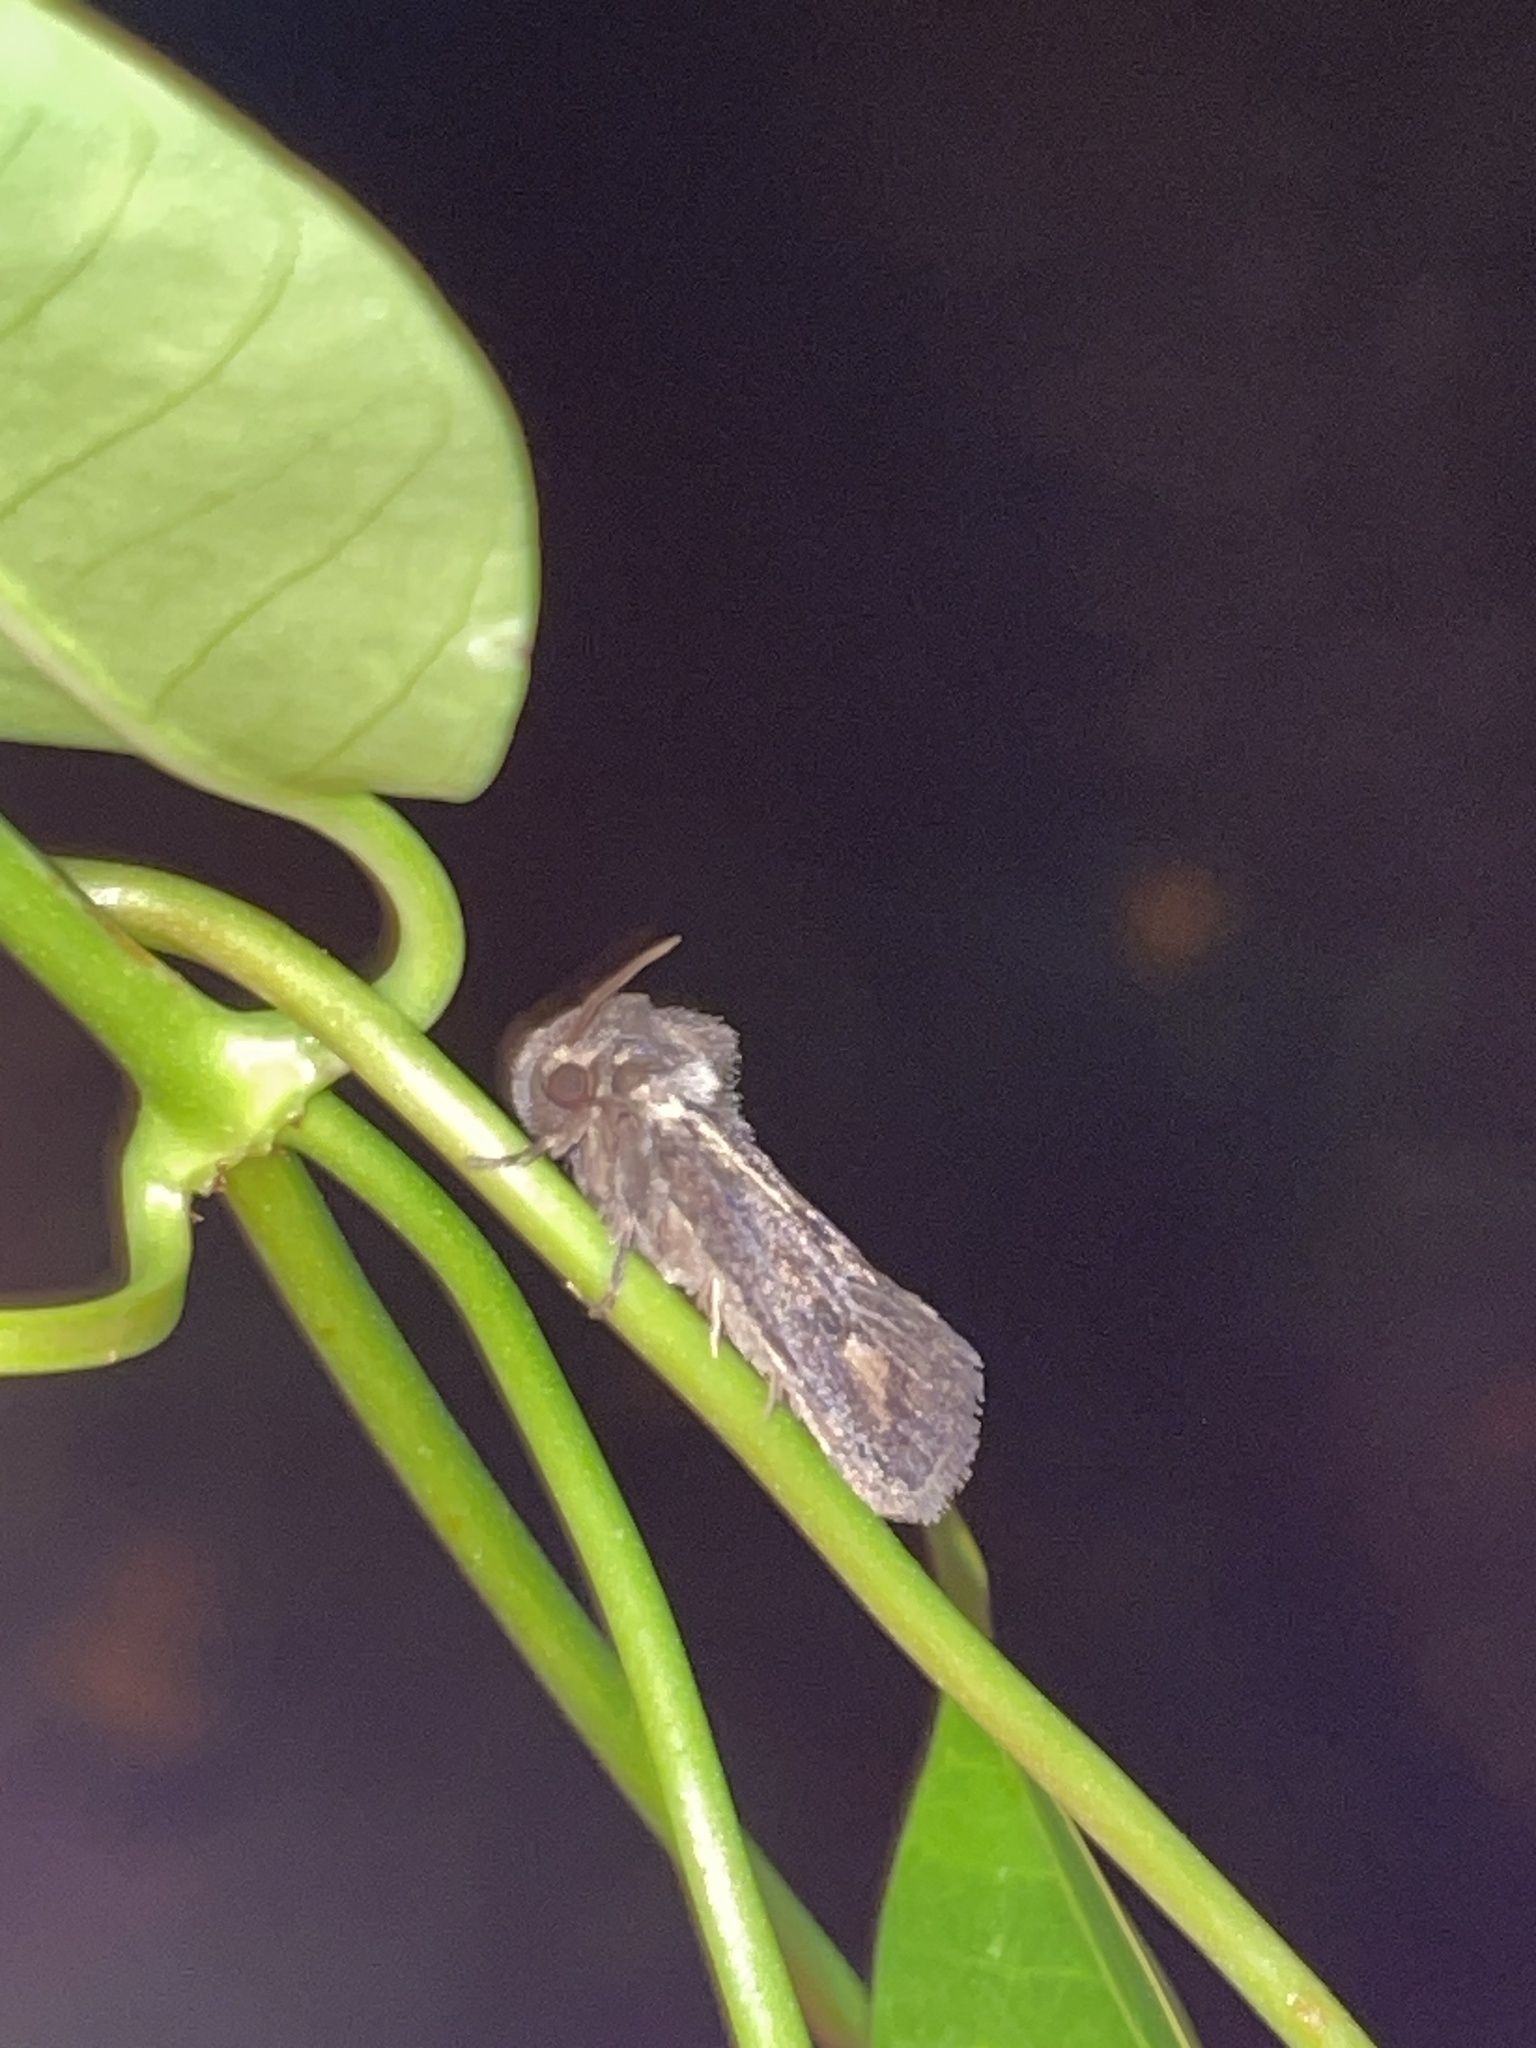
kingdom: Animalia
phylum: Arthropoda
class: Insecta
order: Lepidoptera
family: Tineidae
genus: Acrolophus
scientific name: Acrolophus popeanella
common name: Clemens' grass tubeworm moth
